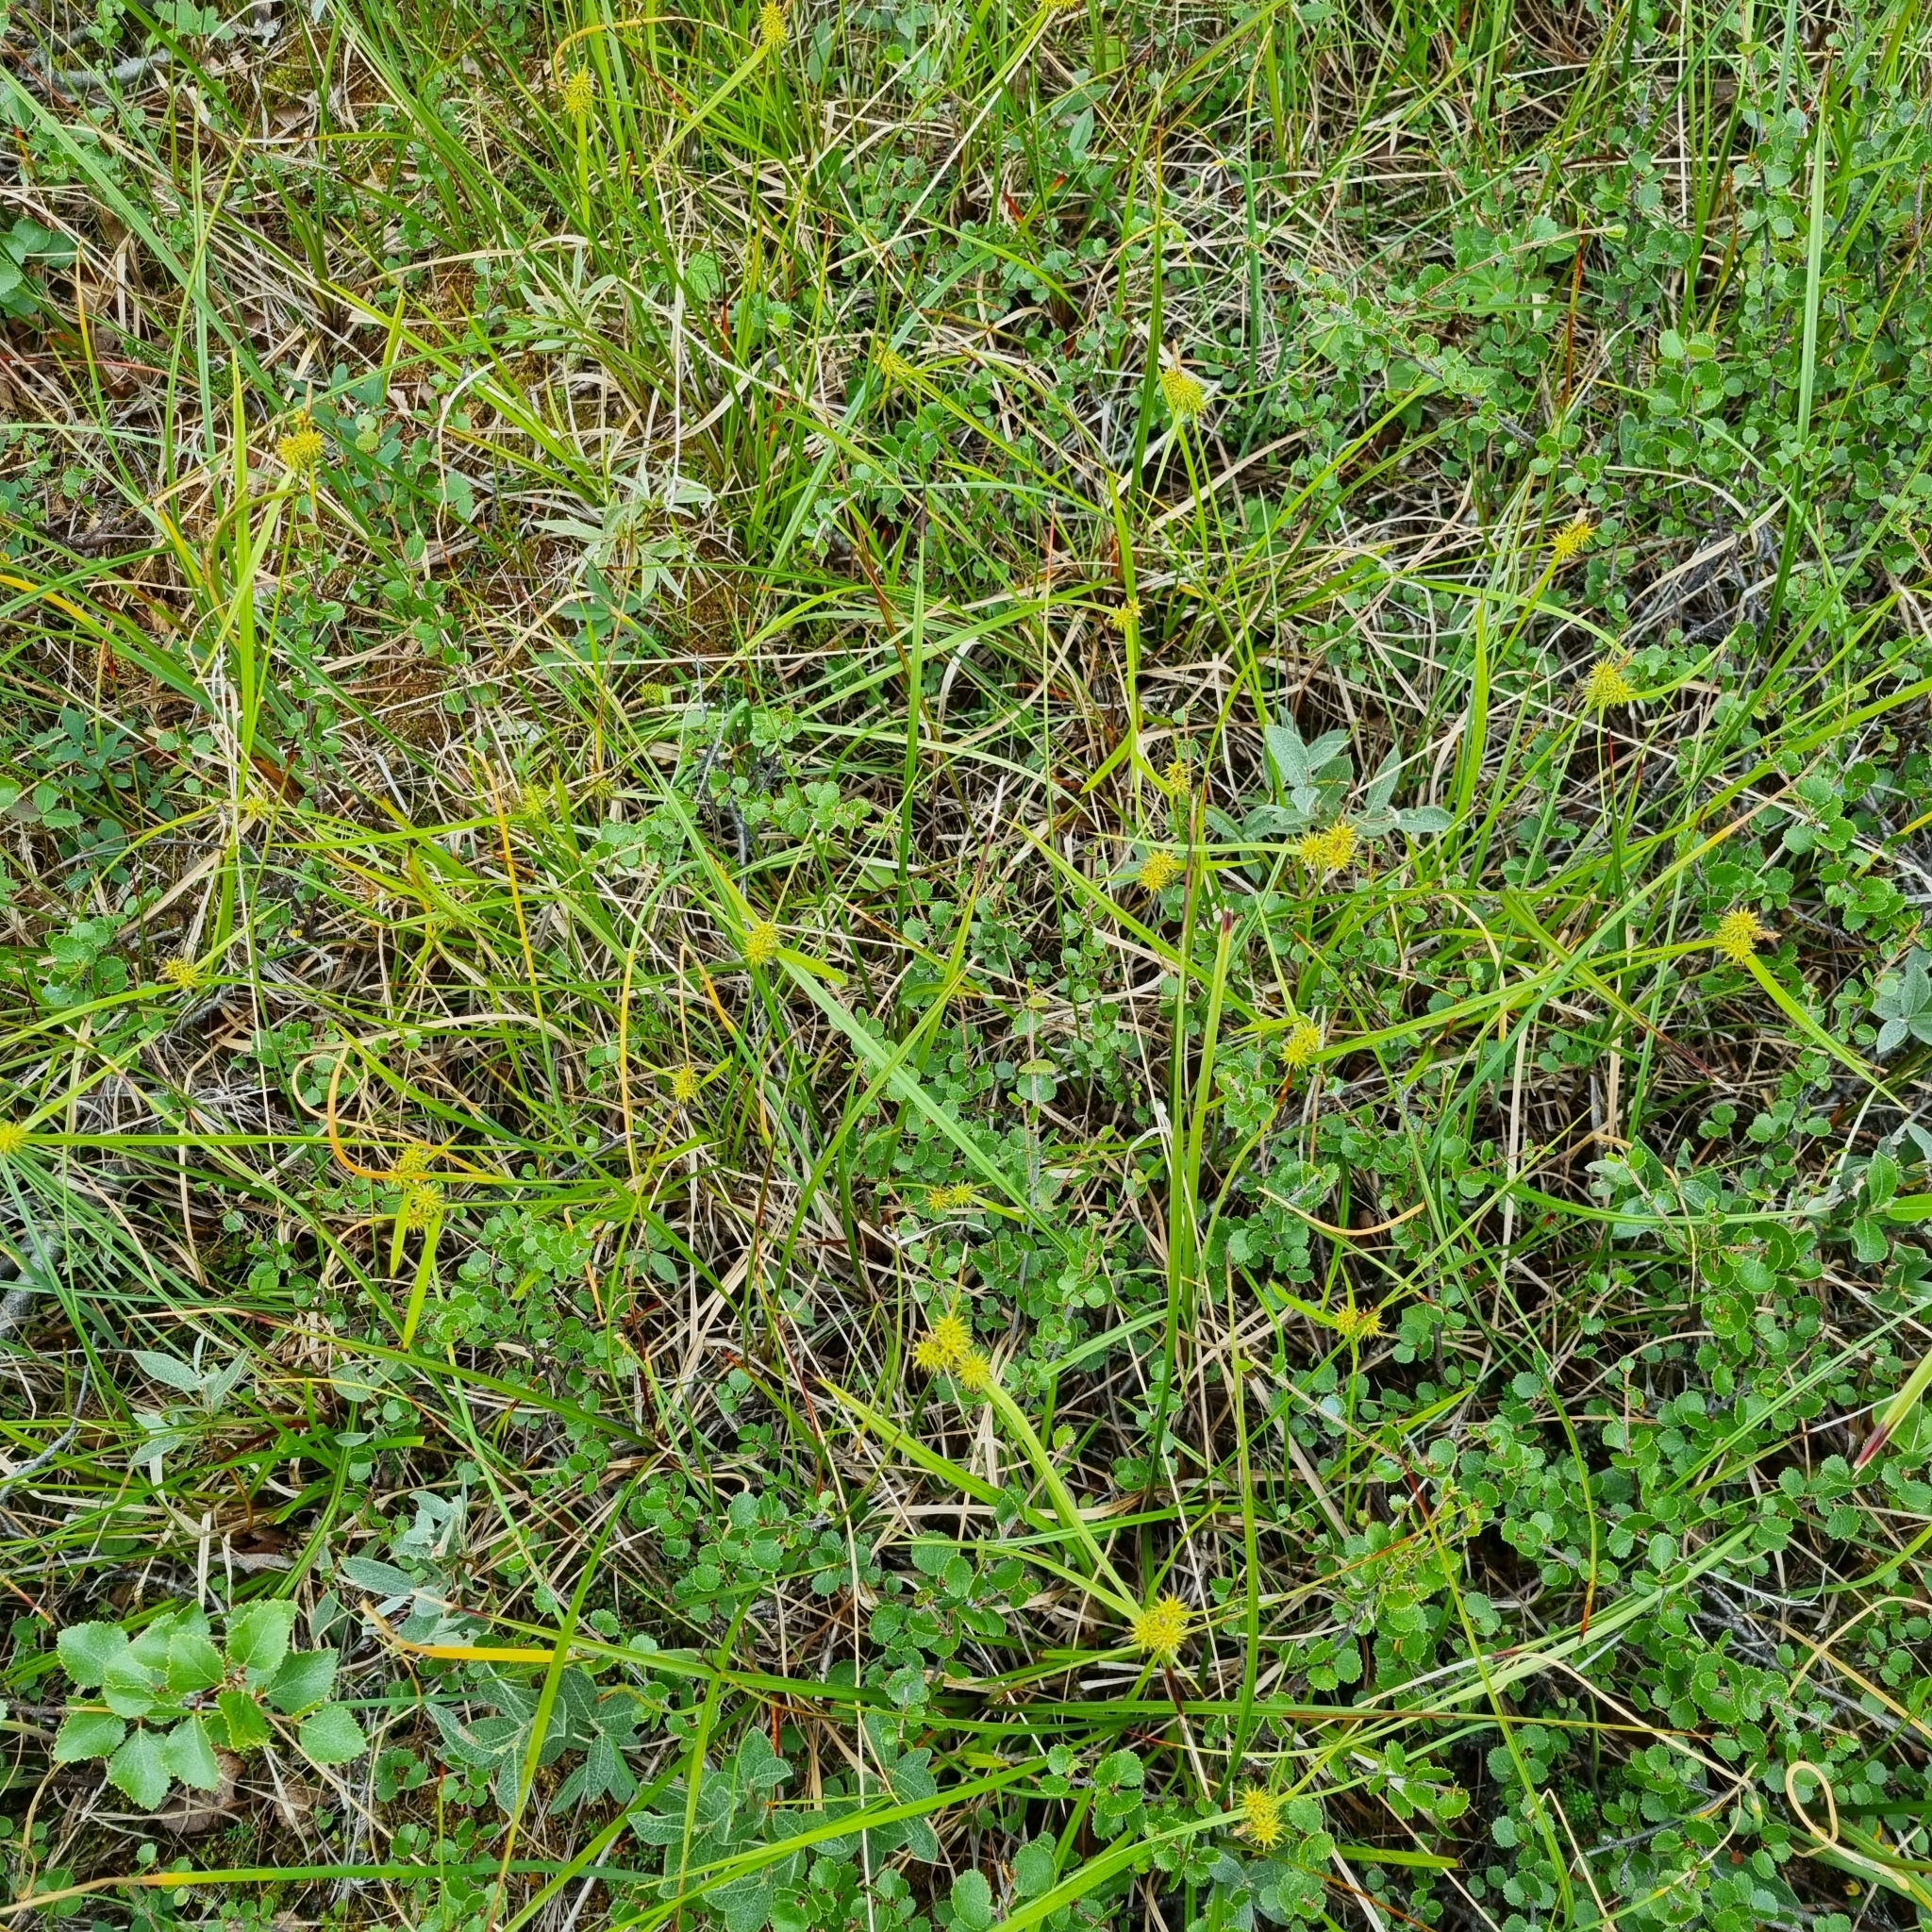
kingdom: Plantae
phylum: Tracheophyta
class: Liliopsida
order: Poales
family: Cyperaceae
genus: Carex
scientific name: Carex flava
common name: Large yellow-sedge
